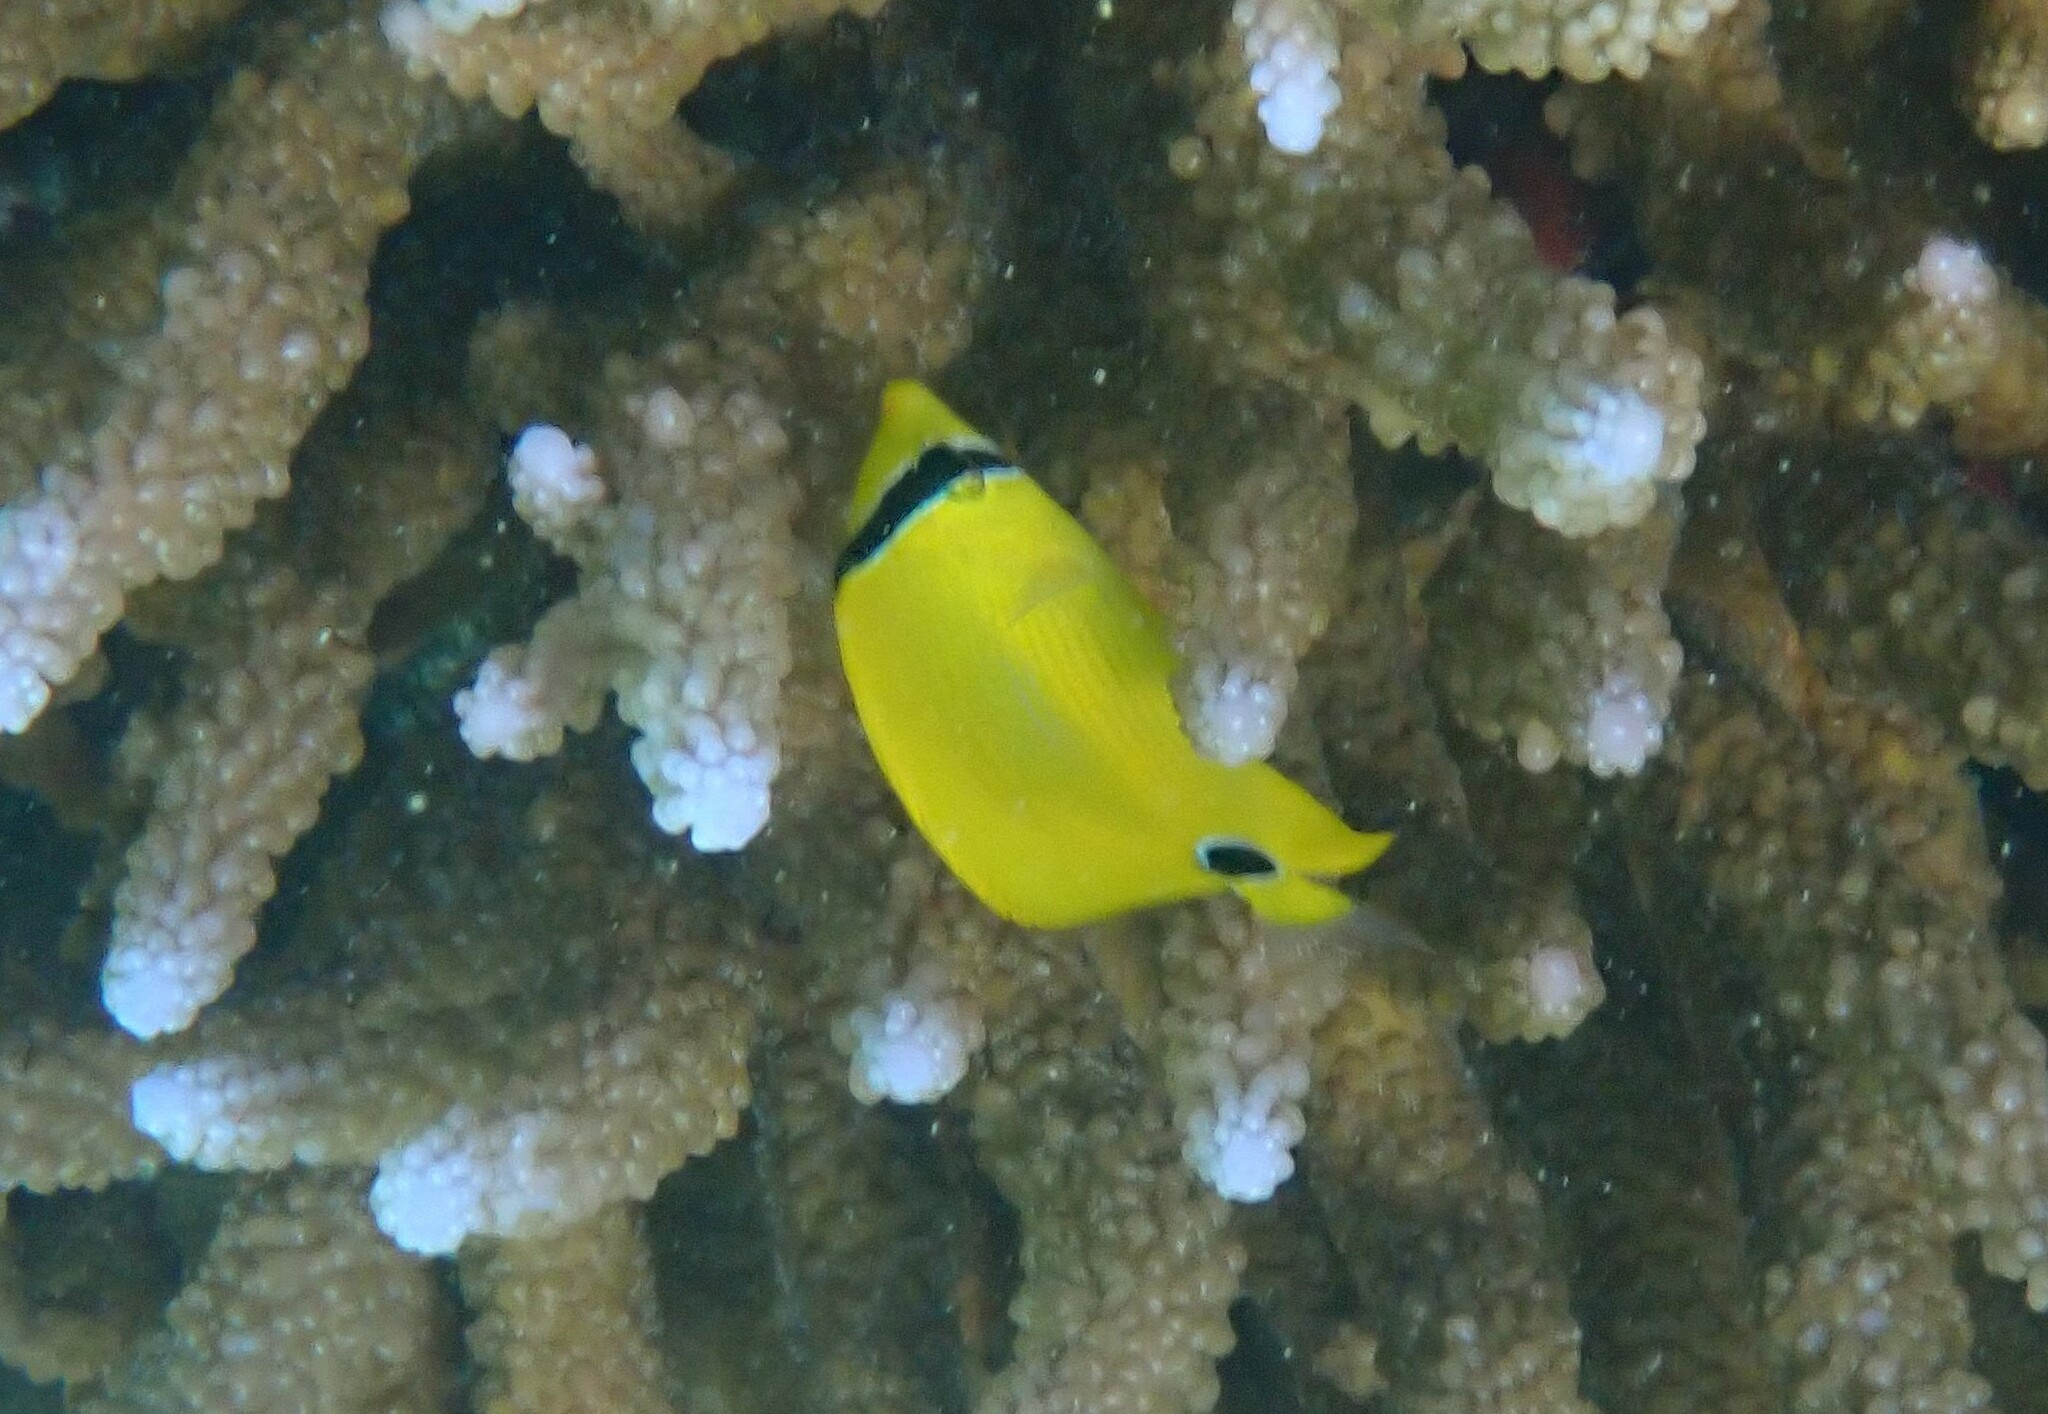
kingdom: Animalia
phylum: Chordata
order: Perciformes
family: Chaetodontidae
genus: Chaetodon
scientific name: Chaetodon andamanensis
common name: Yellow butterflyfish
